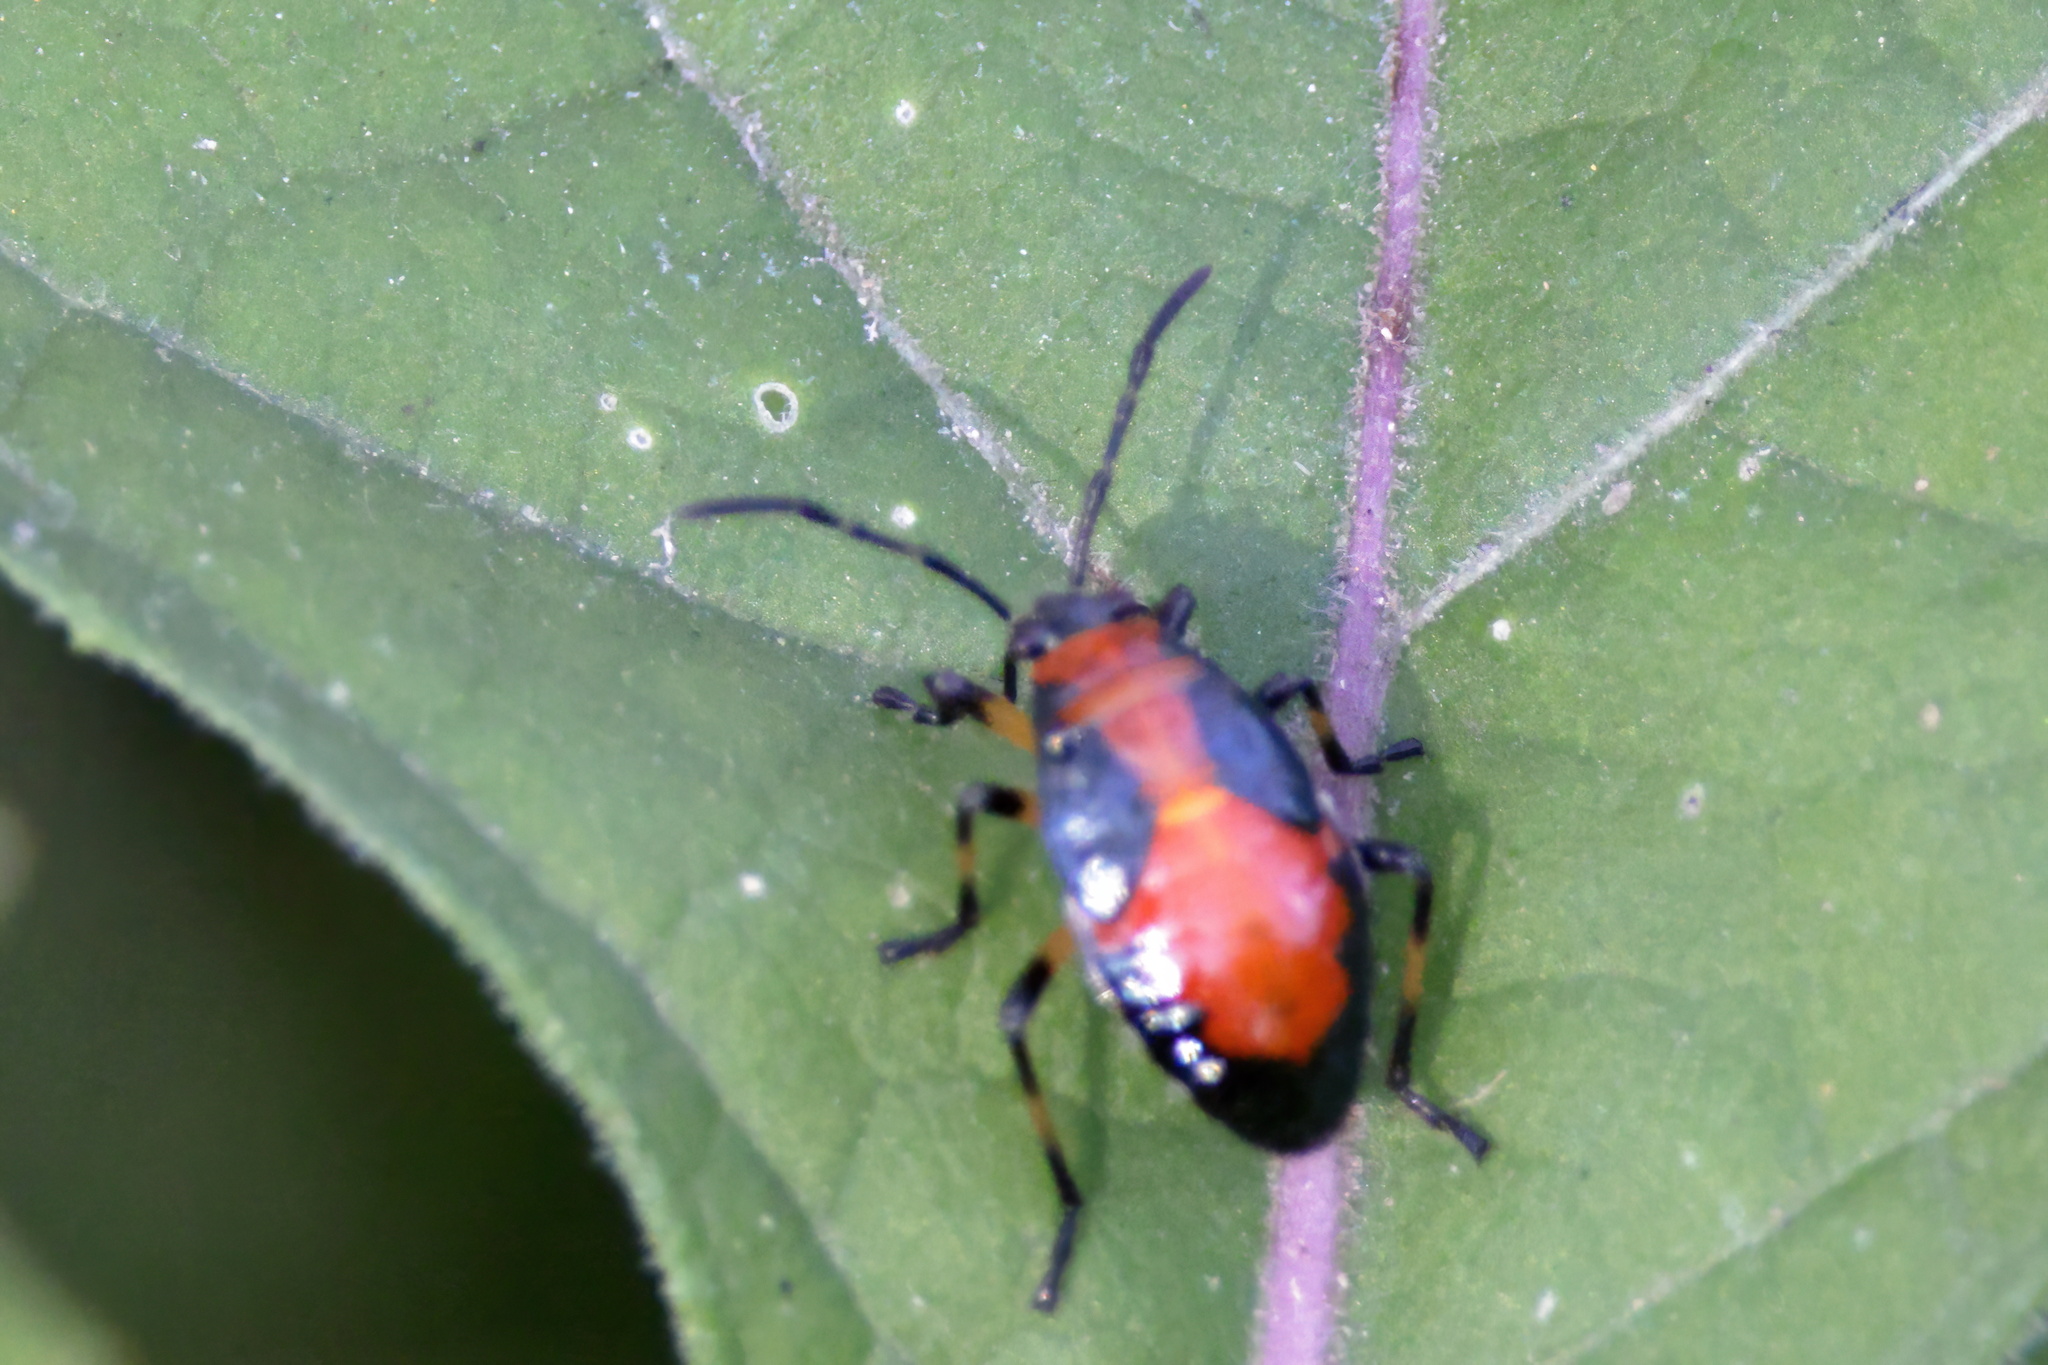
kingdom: Animalia
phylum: Arthropoda
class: Insecta
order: Hemiptera
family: Largidae
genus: Largus
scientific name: Largus maculatus
